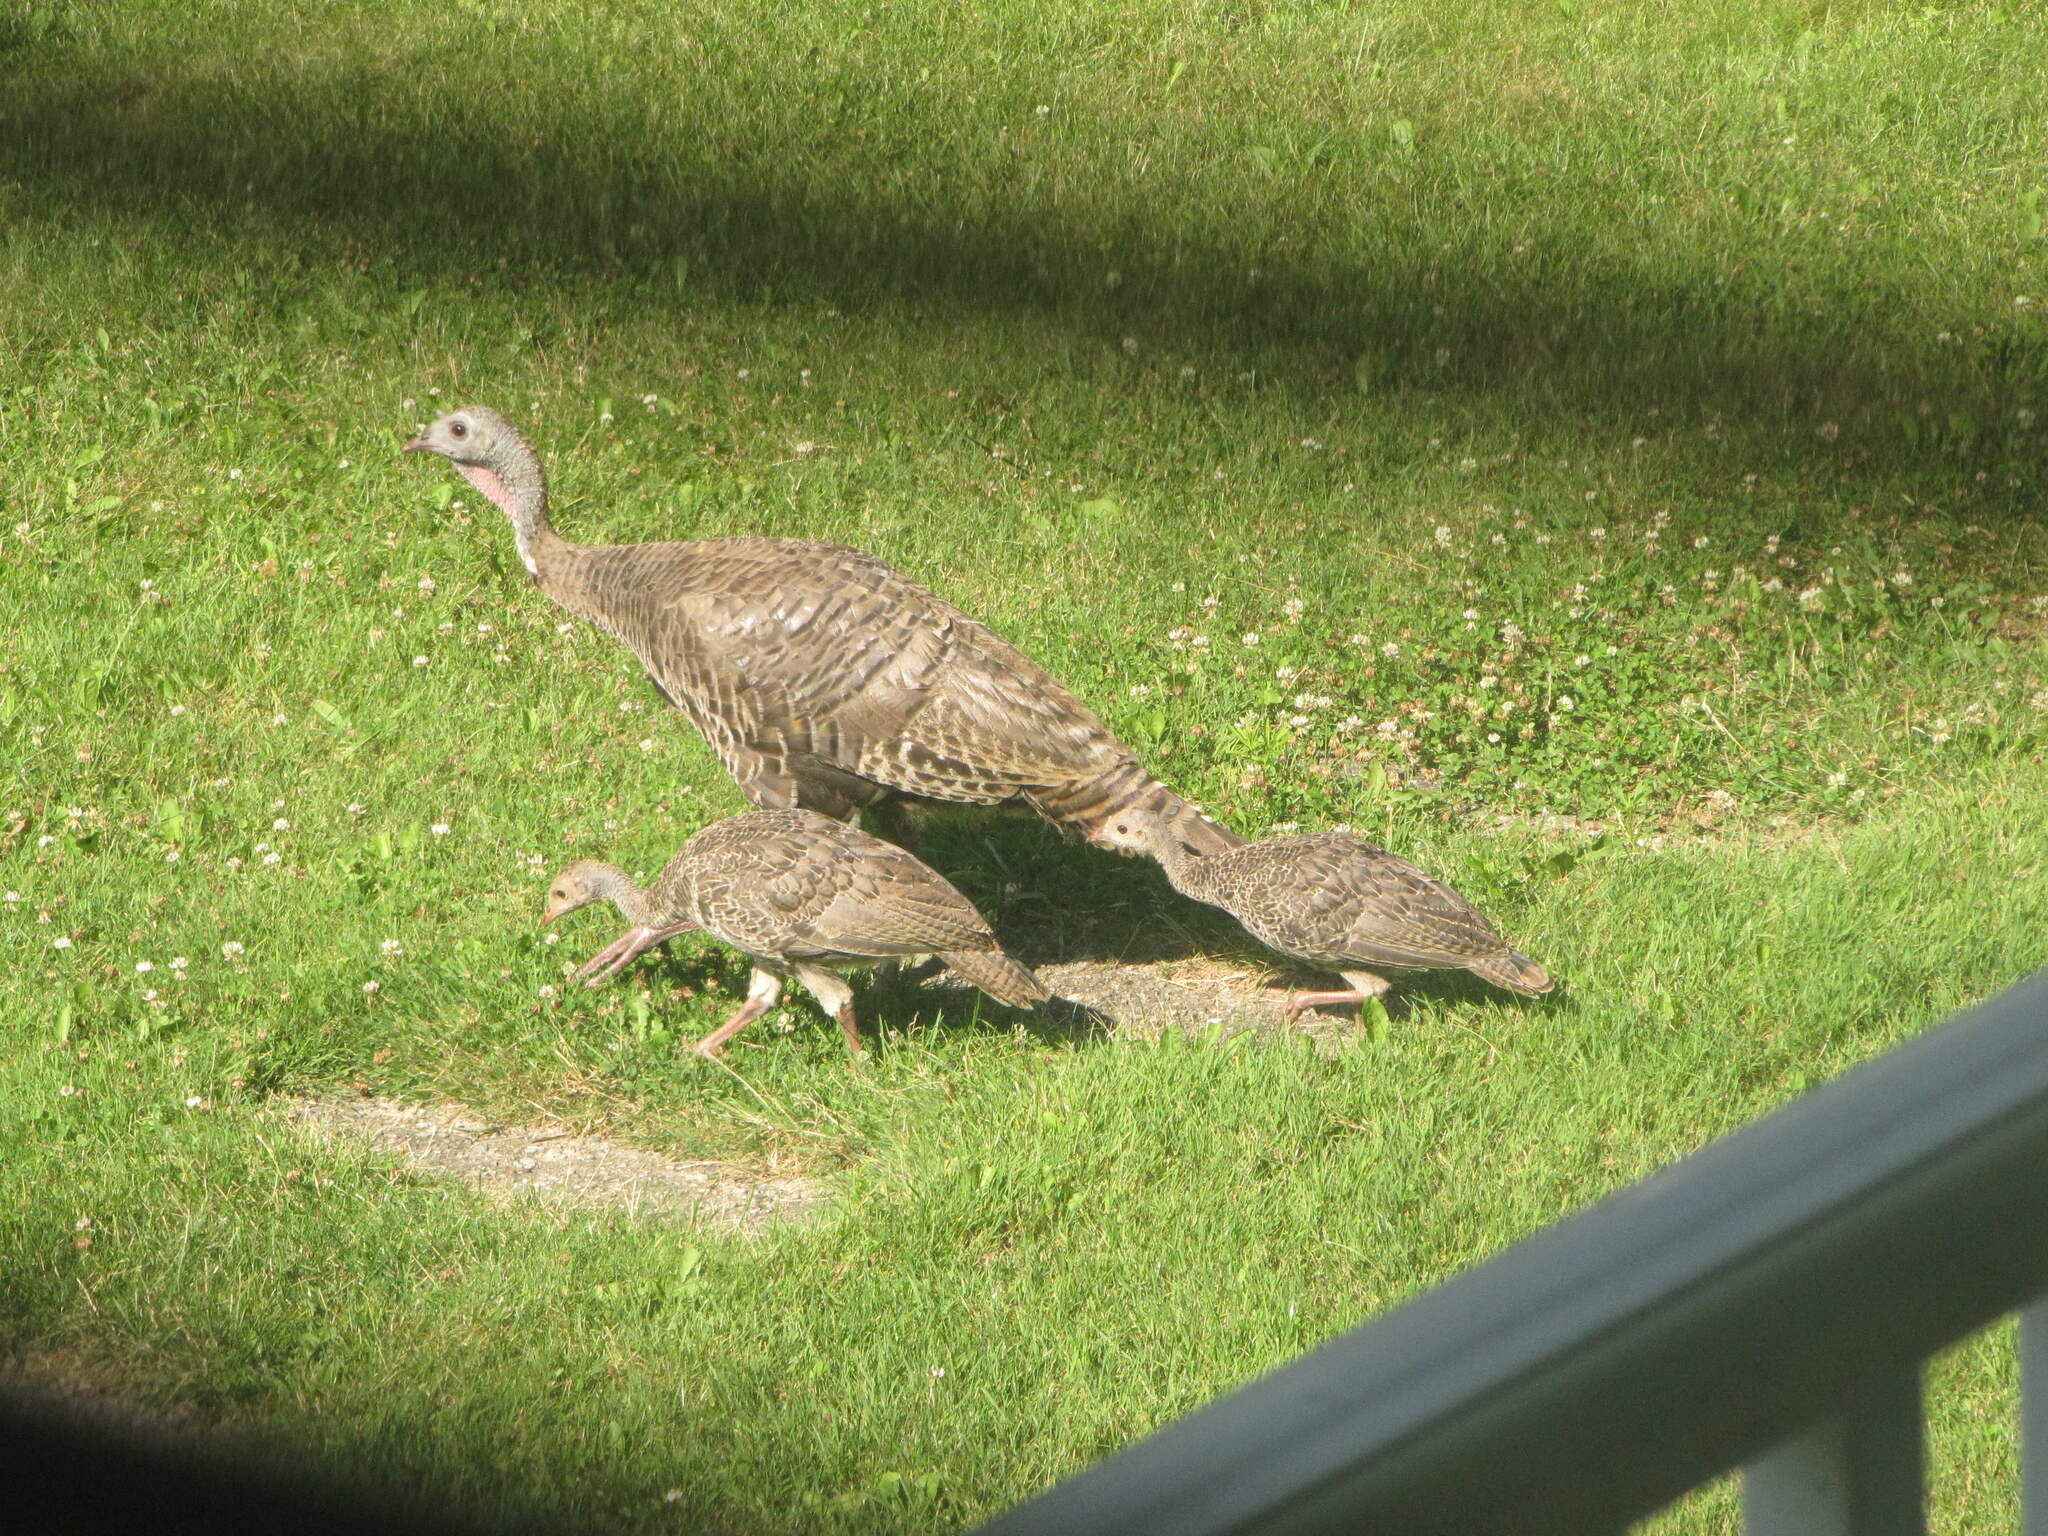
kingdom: Animalia
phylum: Chordata
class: Aves
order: Galliformes
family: Phasianidae
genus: Meleagris
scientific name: Meleagris gallopavo
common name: Wild turkey
